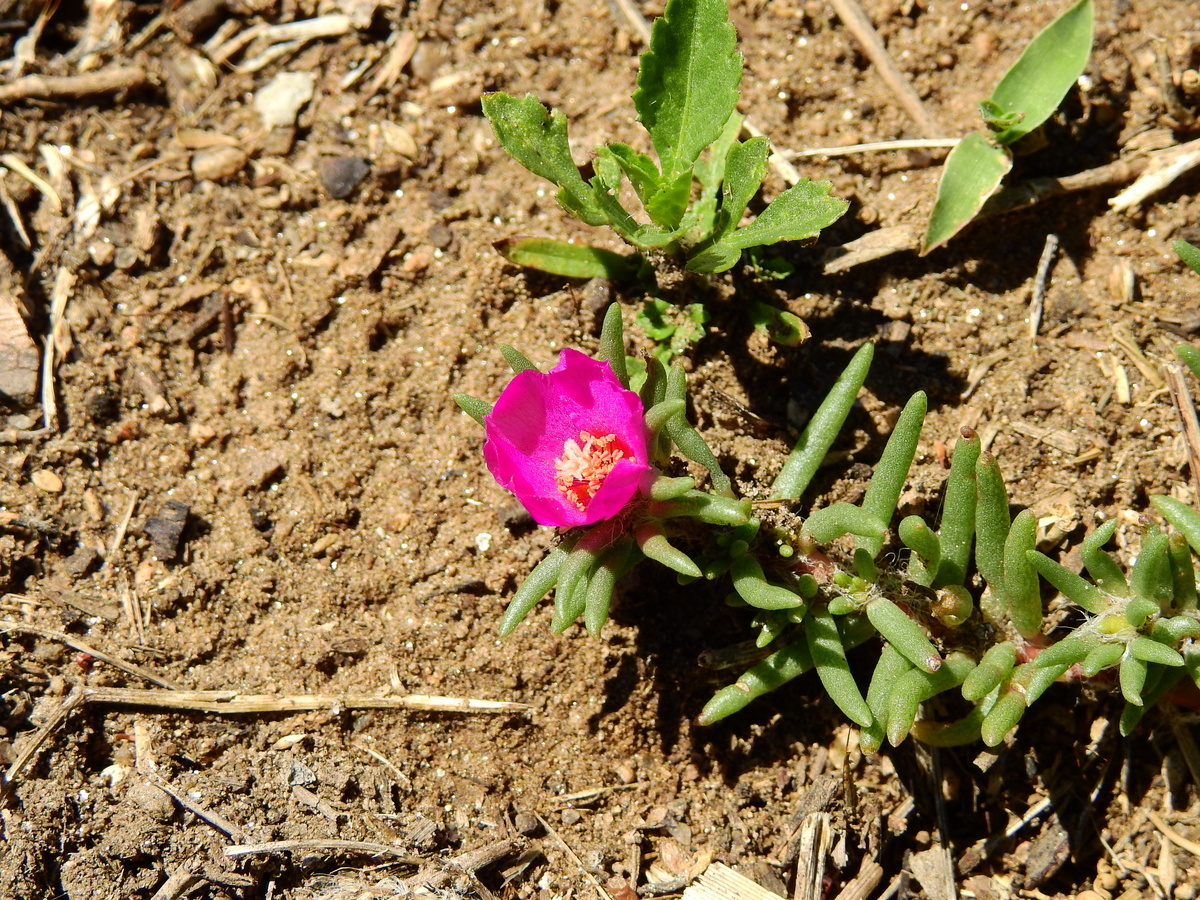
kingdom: Plantae
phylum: Tracheophyta
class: Magnoliopsida
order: Caryophyllales
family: Portulacaceae
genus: Portulaca
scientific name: Portulaca grandiflora
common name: Moss-rose
